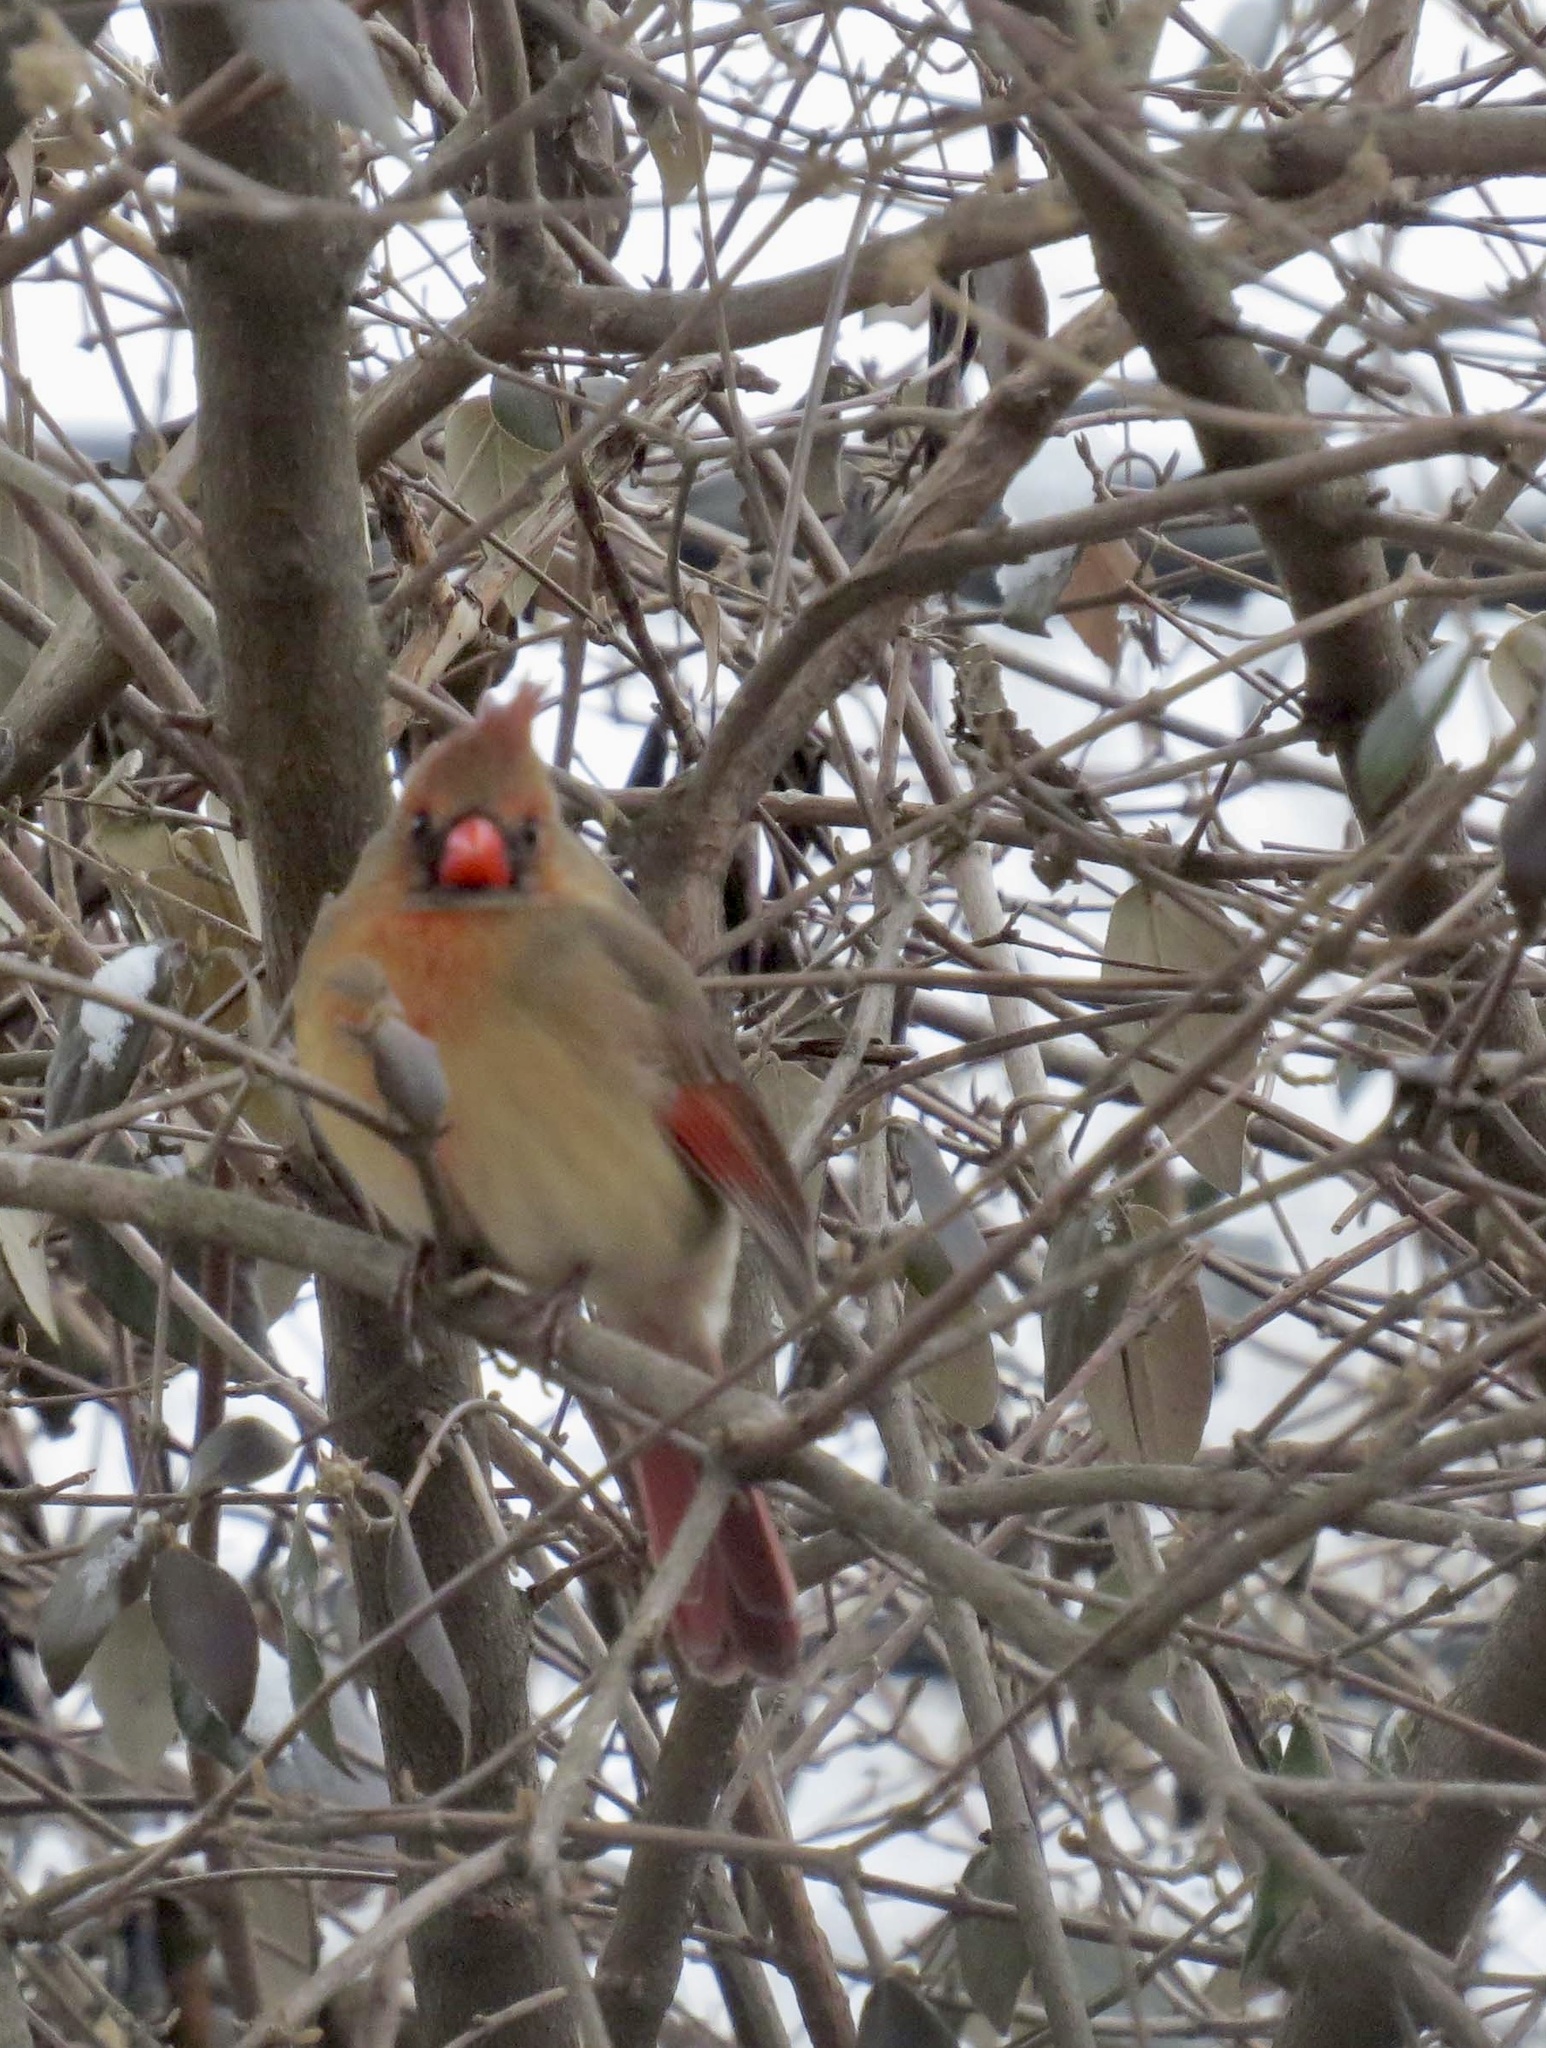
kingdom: Animalia
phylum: Chordata
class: Aves
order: Passeriformes
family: Cardinalidae
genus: Cardinalis
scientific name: Cardinalis cardinalis
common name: Northern cardinal
